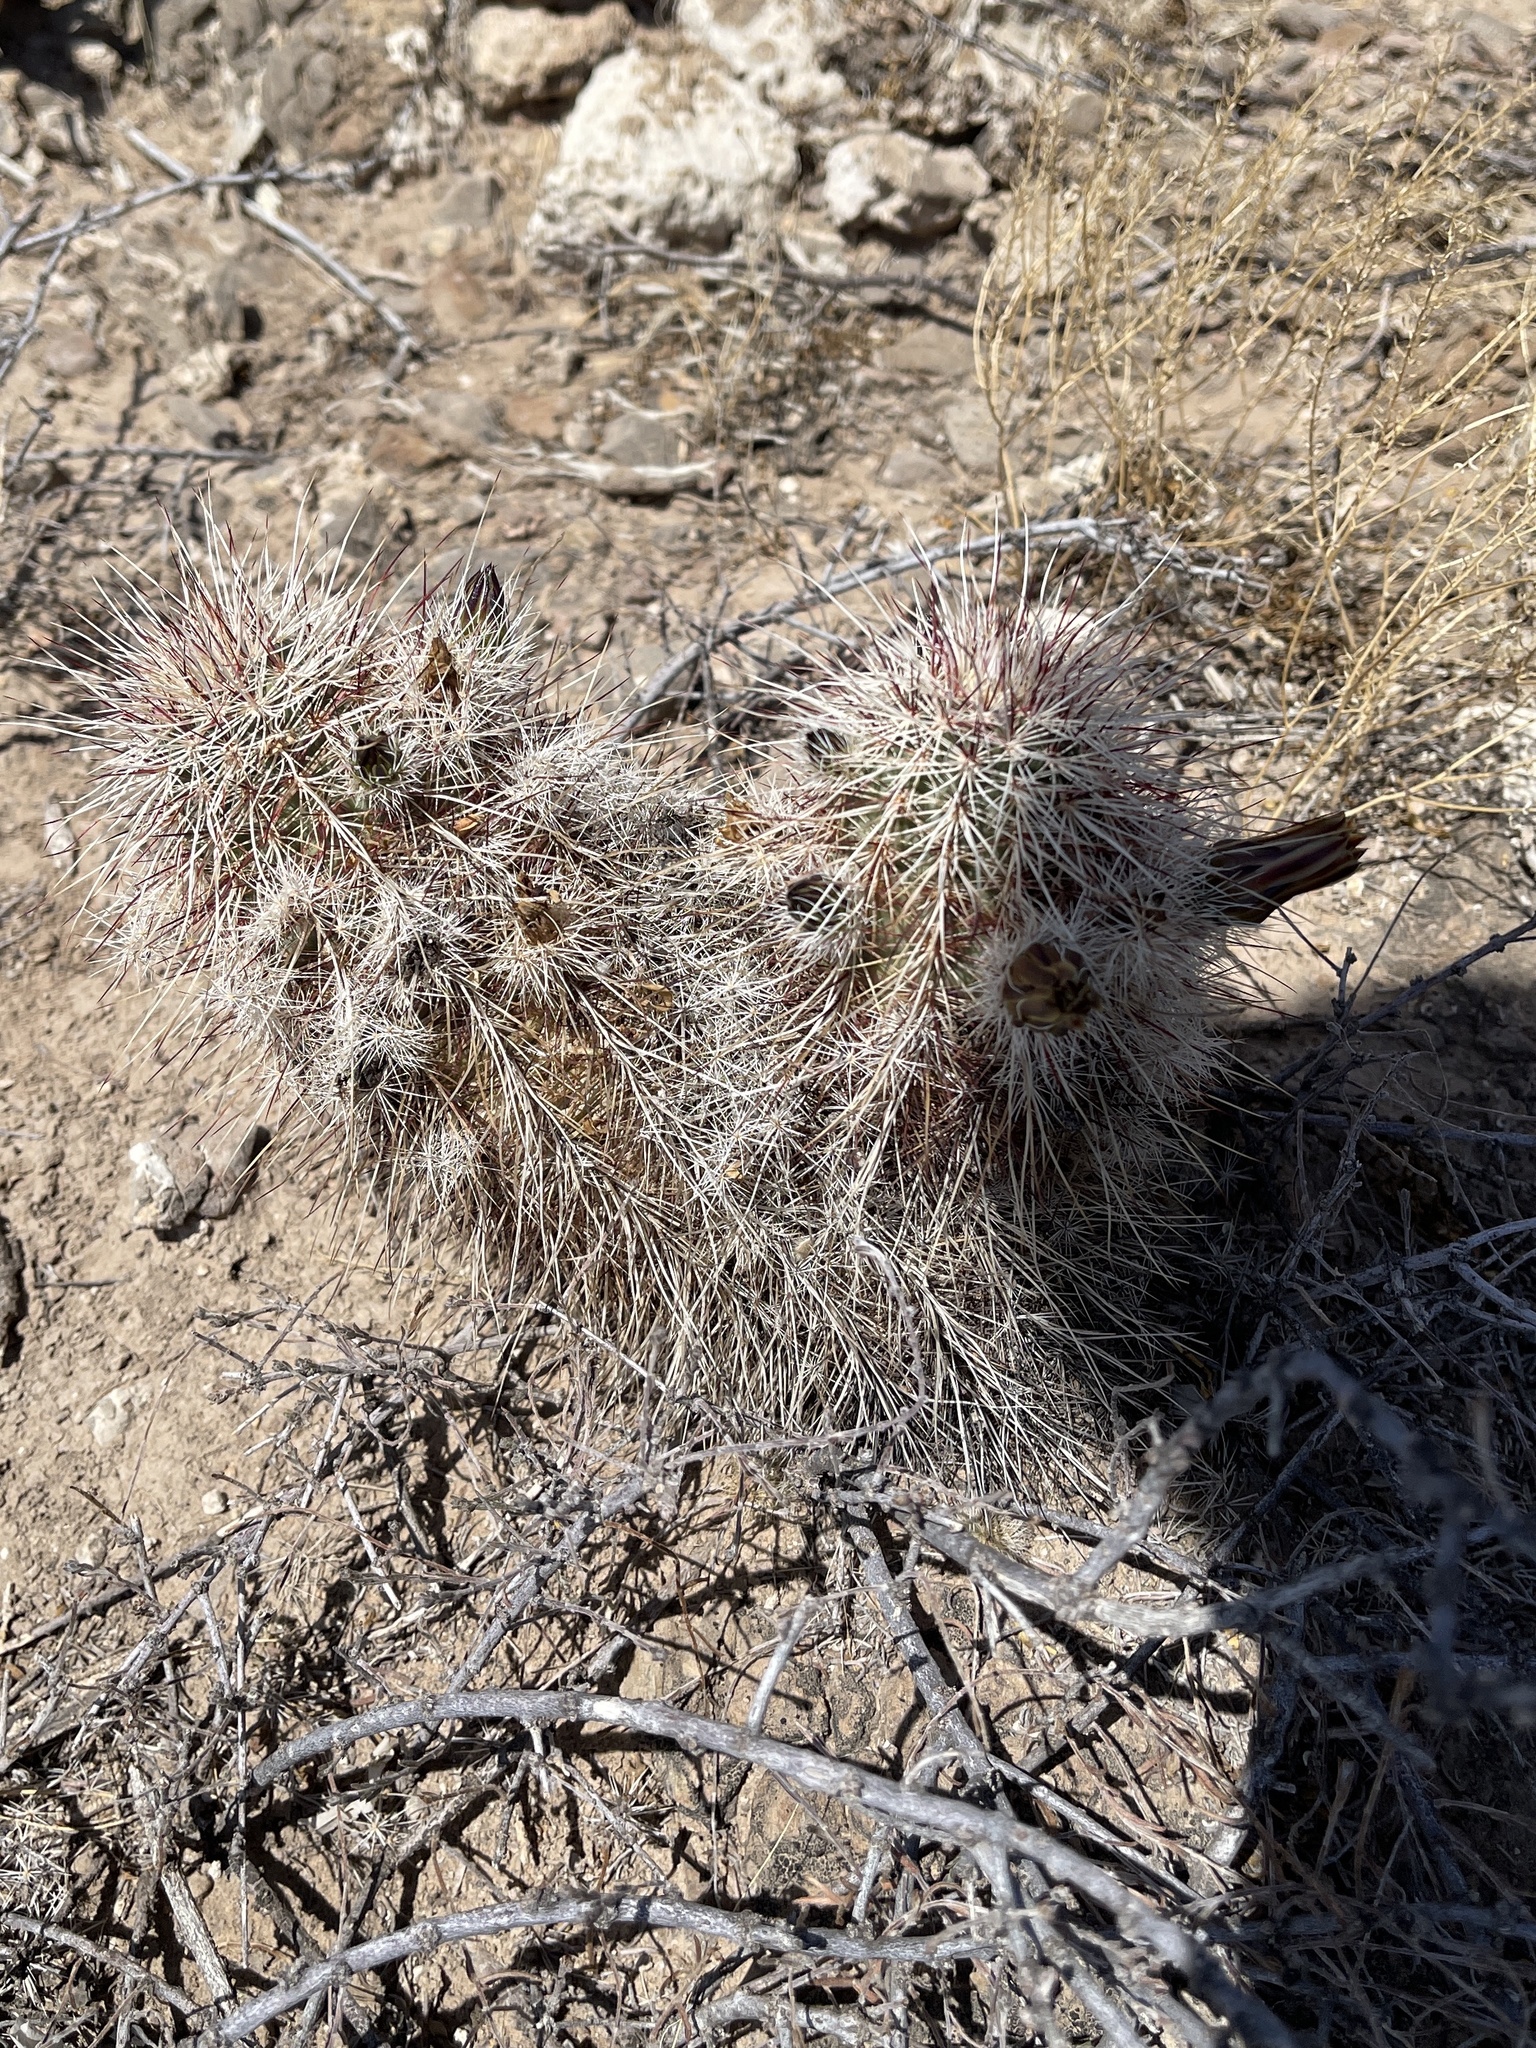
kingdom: Plantae
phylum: Tracheophyta
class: Magnoliopsida
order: Caryophyllales
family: Cactaceae
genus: Echinocereus
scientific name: Echinocereus viridiflorus
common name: Nylon hedgehog cactus
